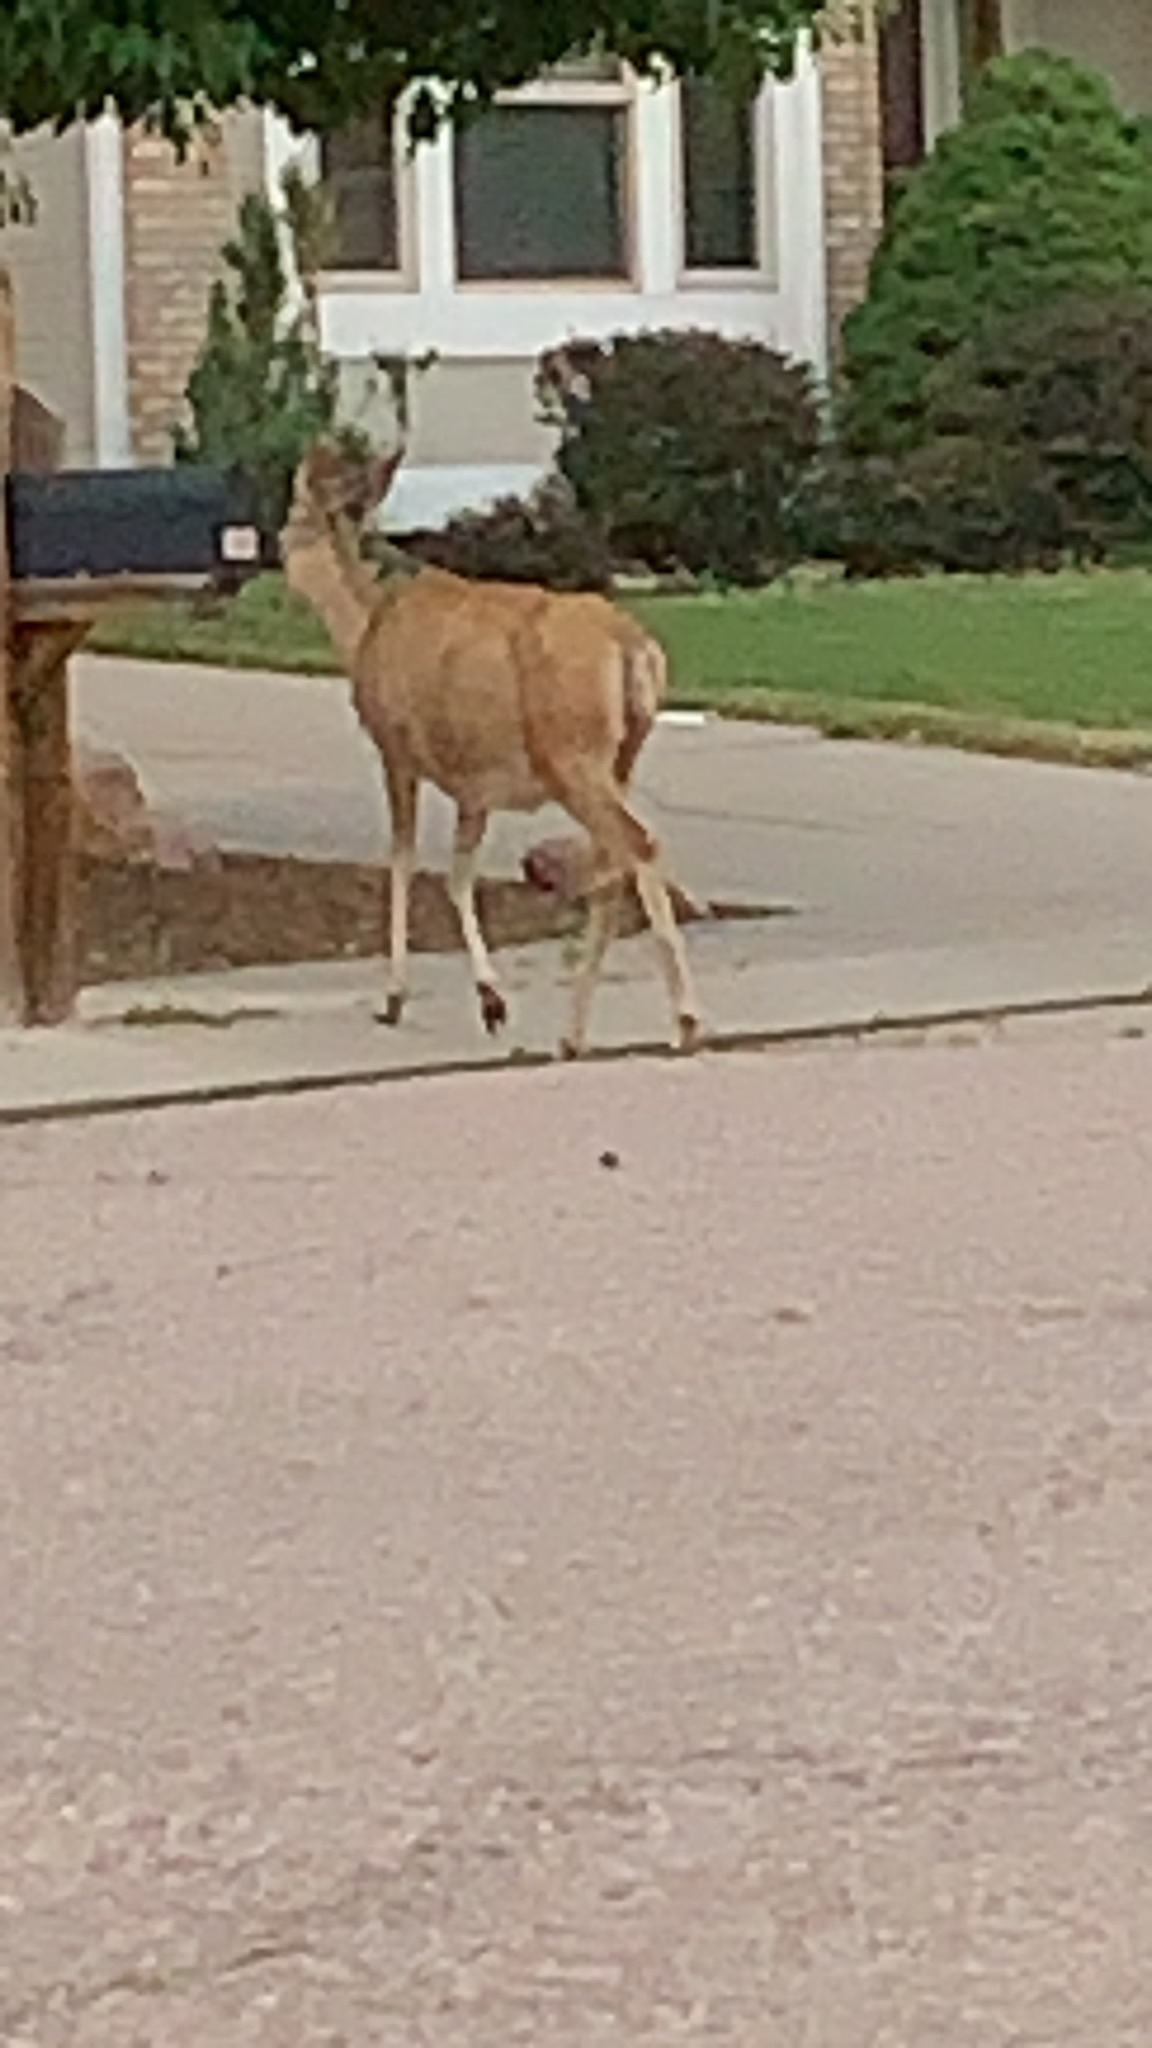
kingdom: Animalia
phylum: Chordata
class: Mammalia
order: Artiodactyla
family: Cervidae
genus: Odocoileus
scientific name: Odocoileus hemionus
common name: Mule deer
